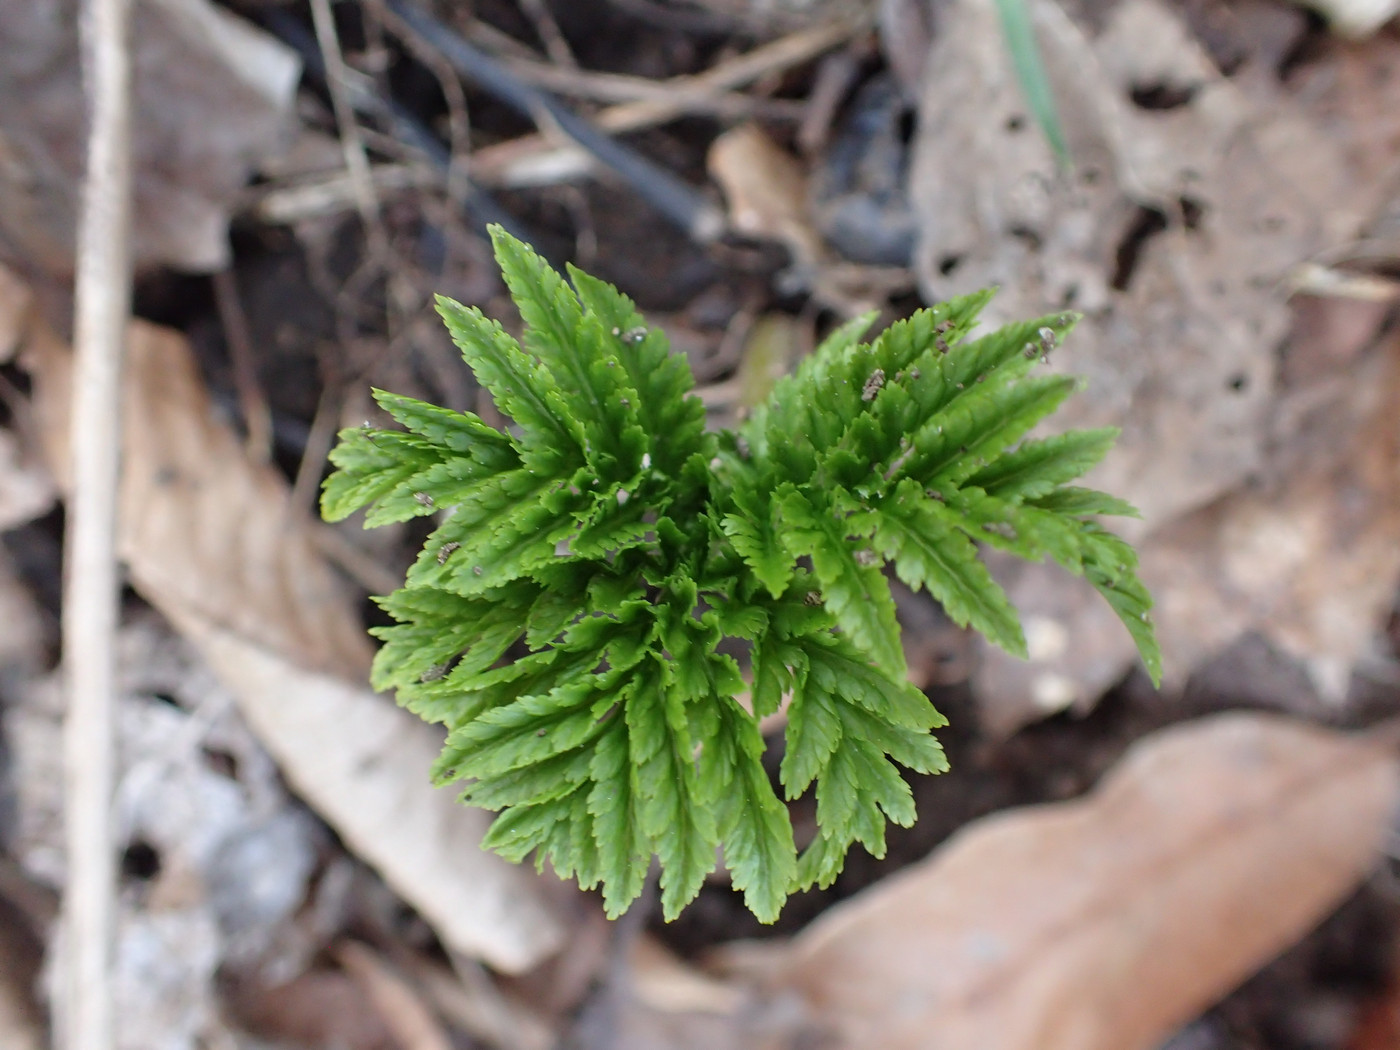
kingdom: Plantae
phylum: Tracheophyta
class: Polypodiopsida
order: Ophioglossales
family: Ophioglossaceae
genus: Botrypus
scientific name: Botrypus virginianus
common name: Common grapefern
